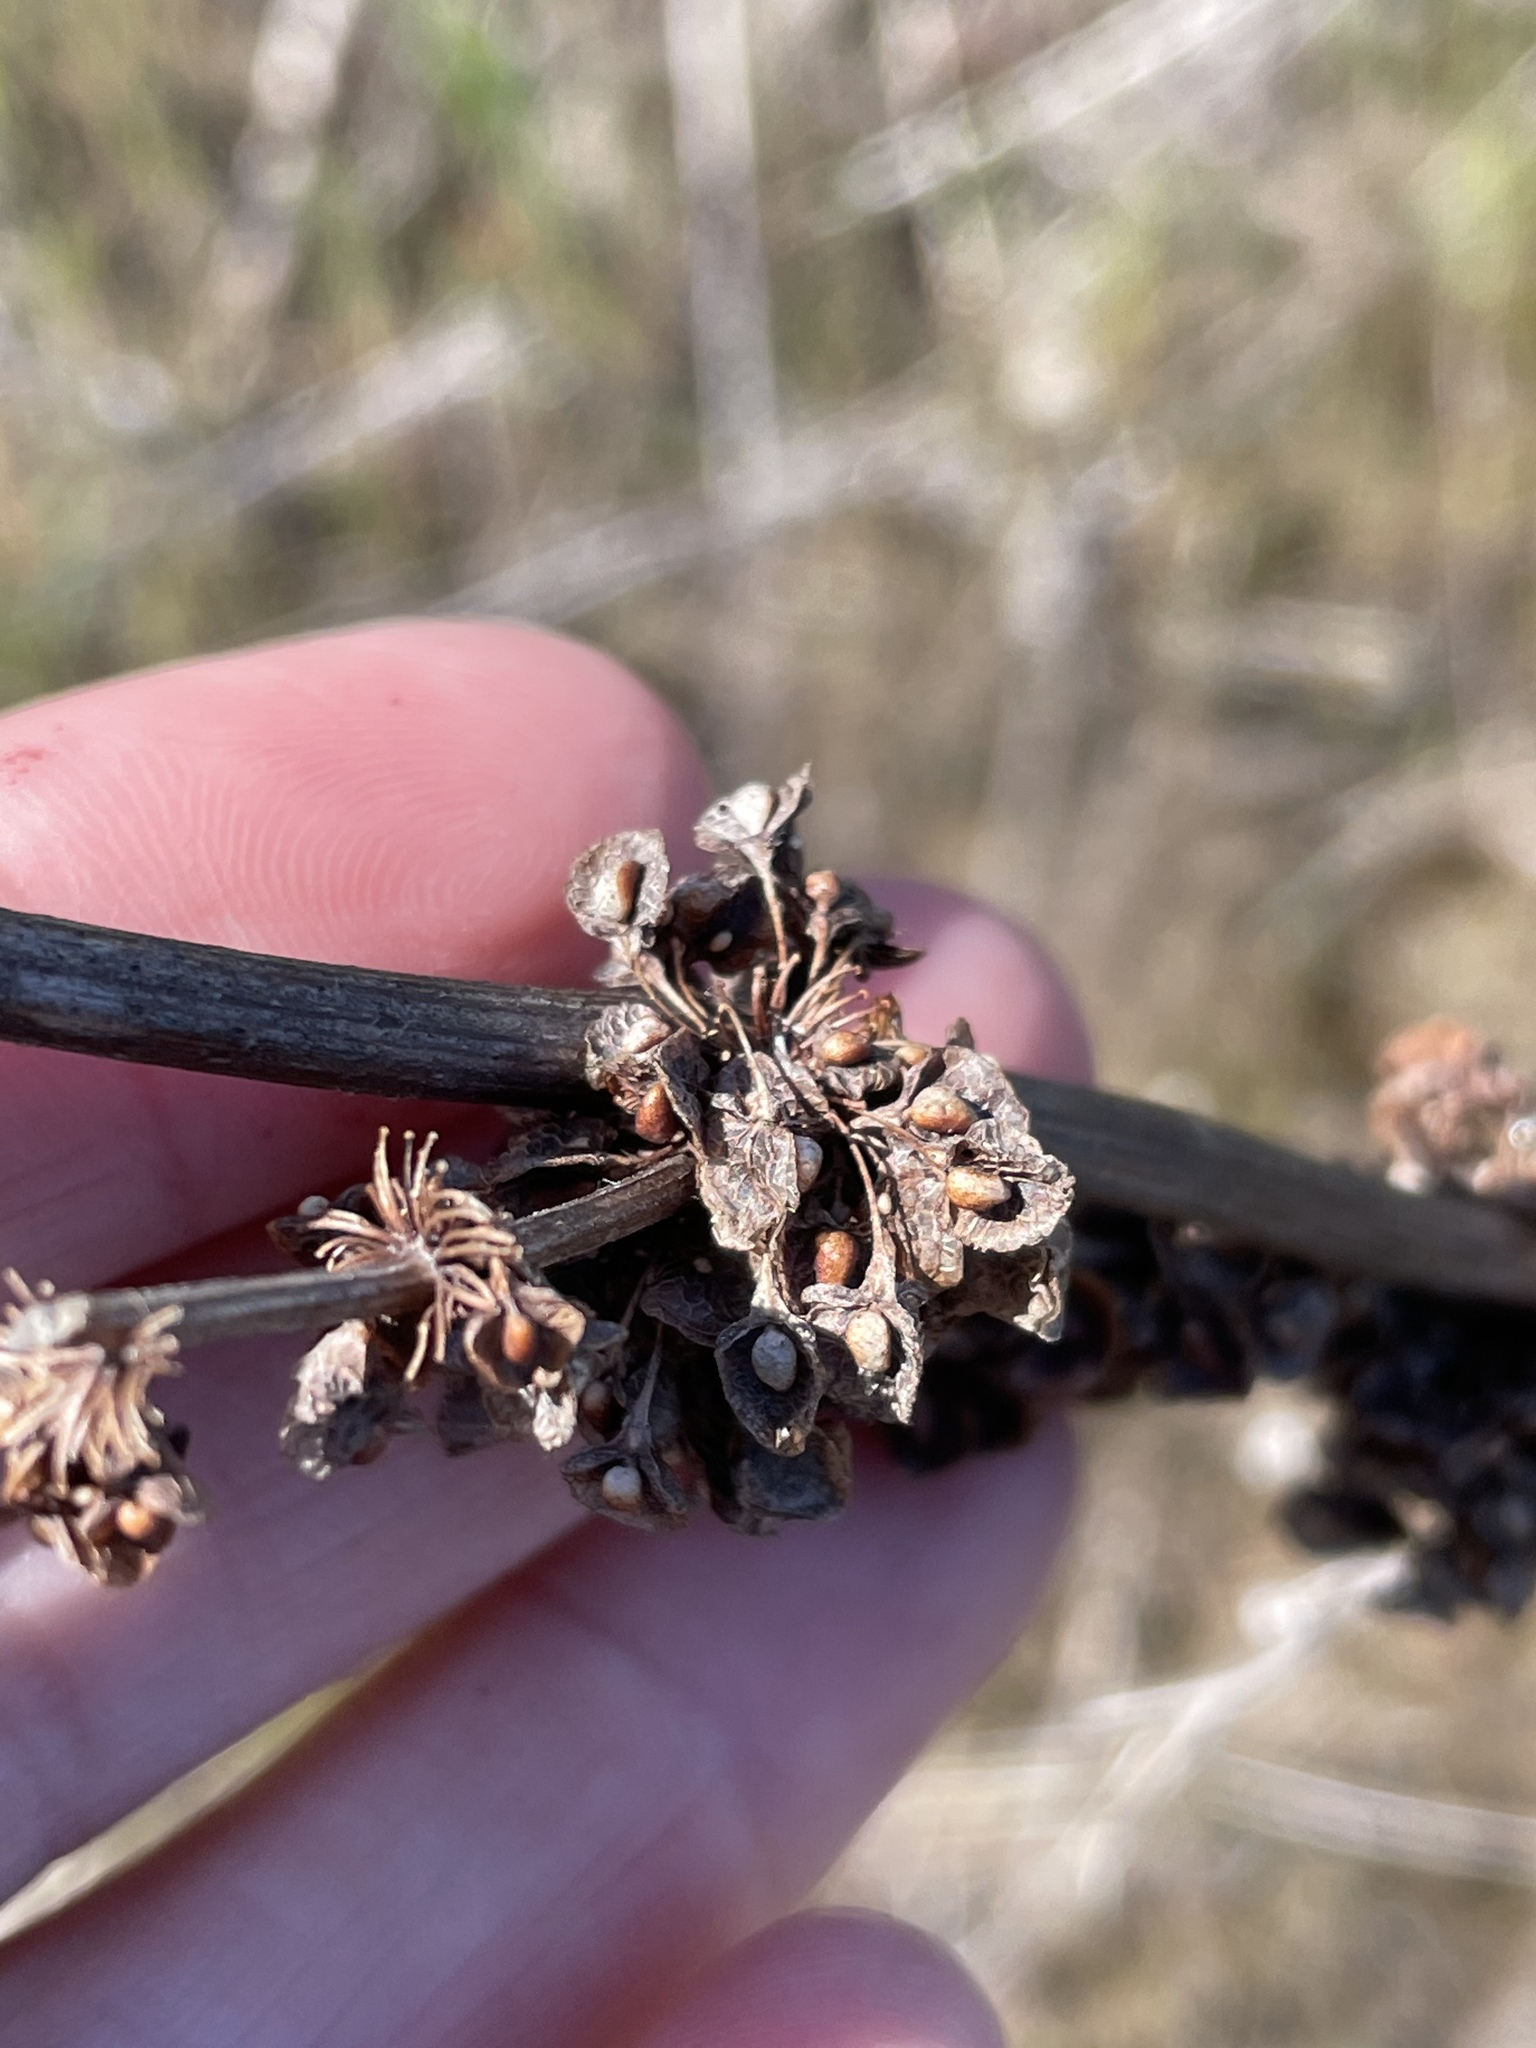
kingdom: Plantae
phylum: Tracheophyta
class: Magnoliopsida
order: Caryophyllales
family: Polygonaceae
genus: Rumex
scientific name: Rumex crispus
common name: Curled dock
